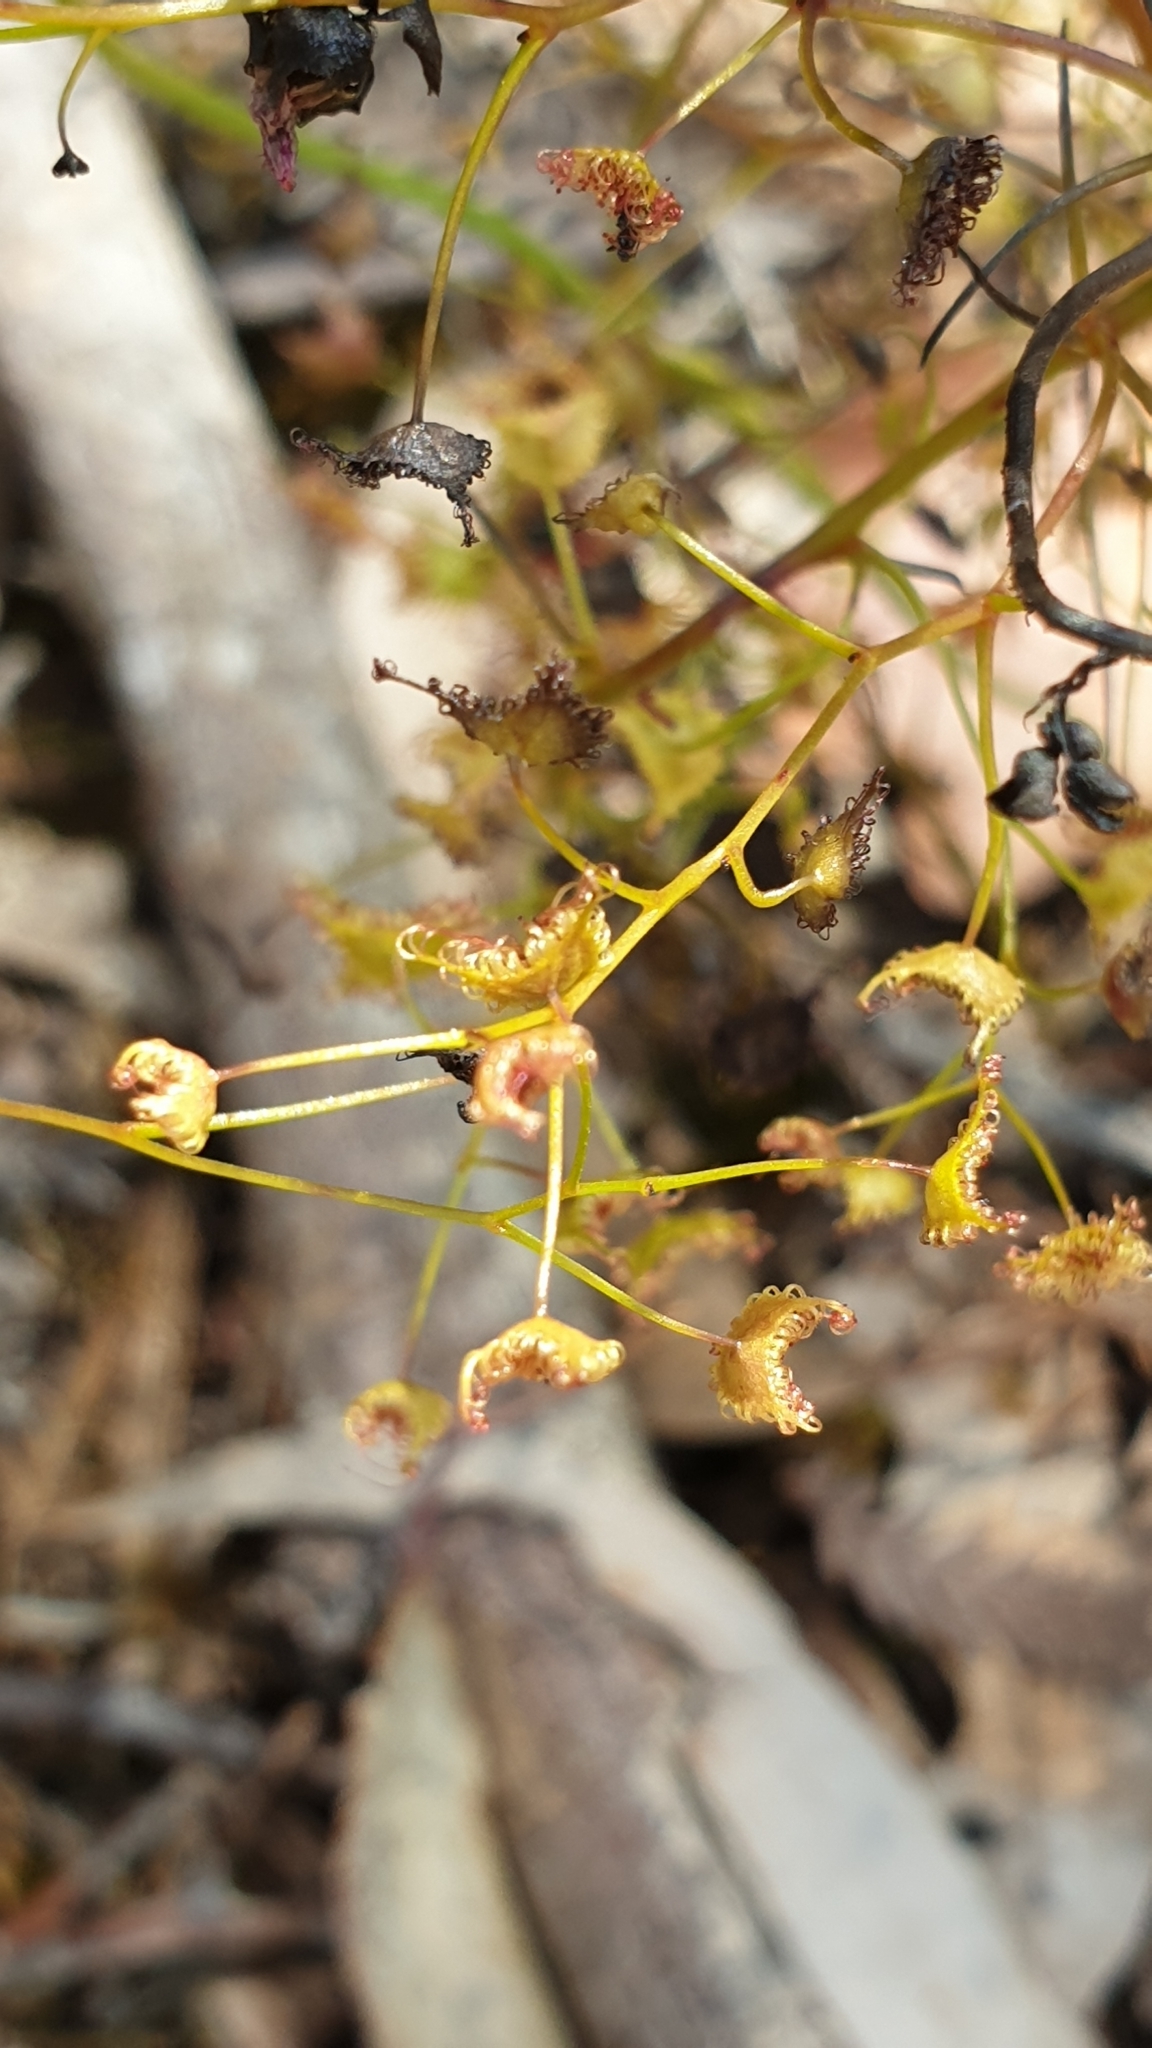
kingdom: Plantae
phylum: Tracheophyta
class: Magnoliopsida
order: Caryophyllales
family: Droseraceae
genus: Drosera
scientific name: Drosera peltata
